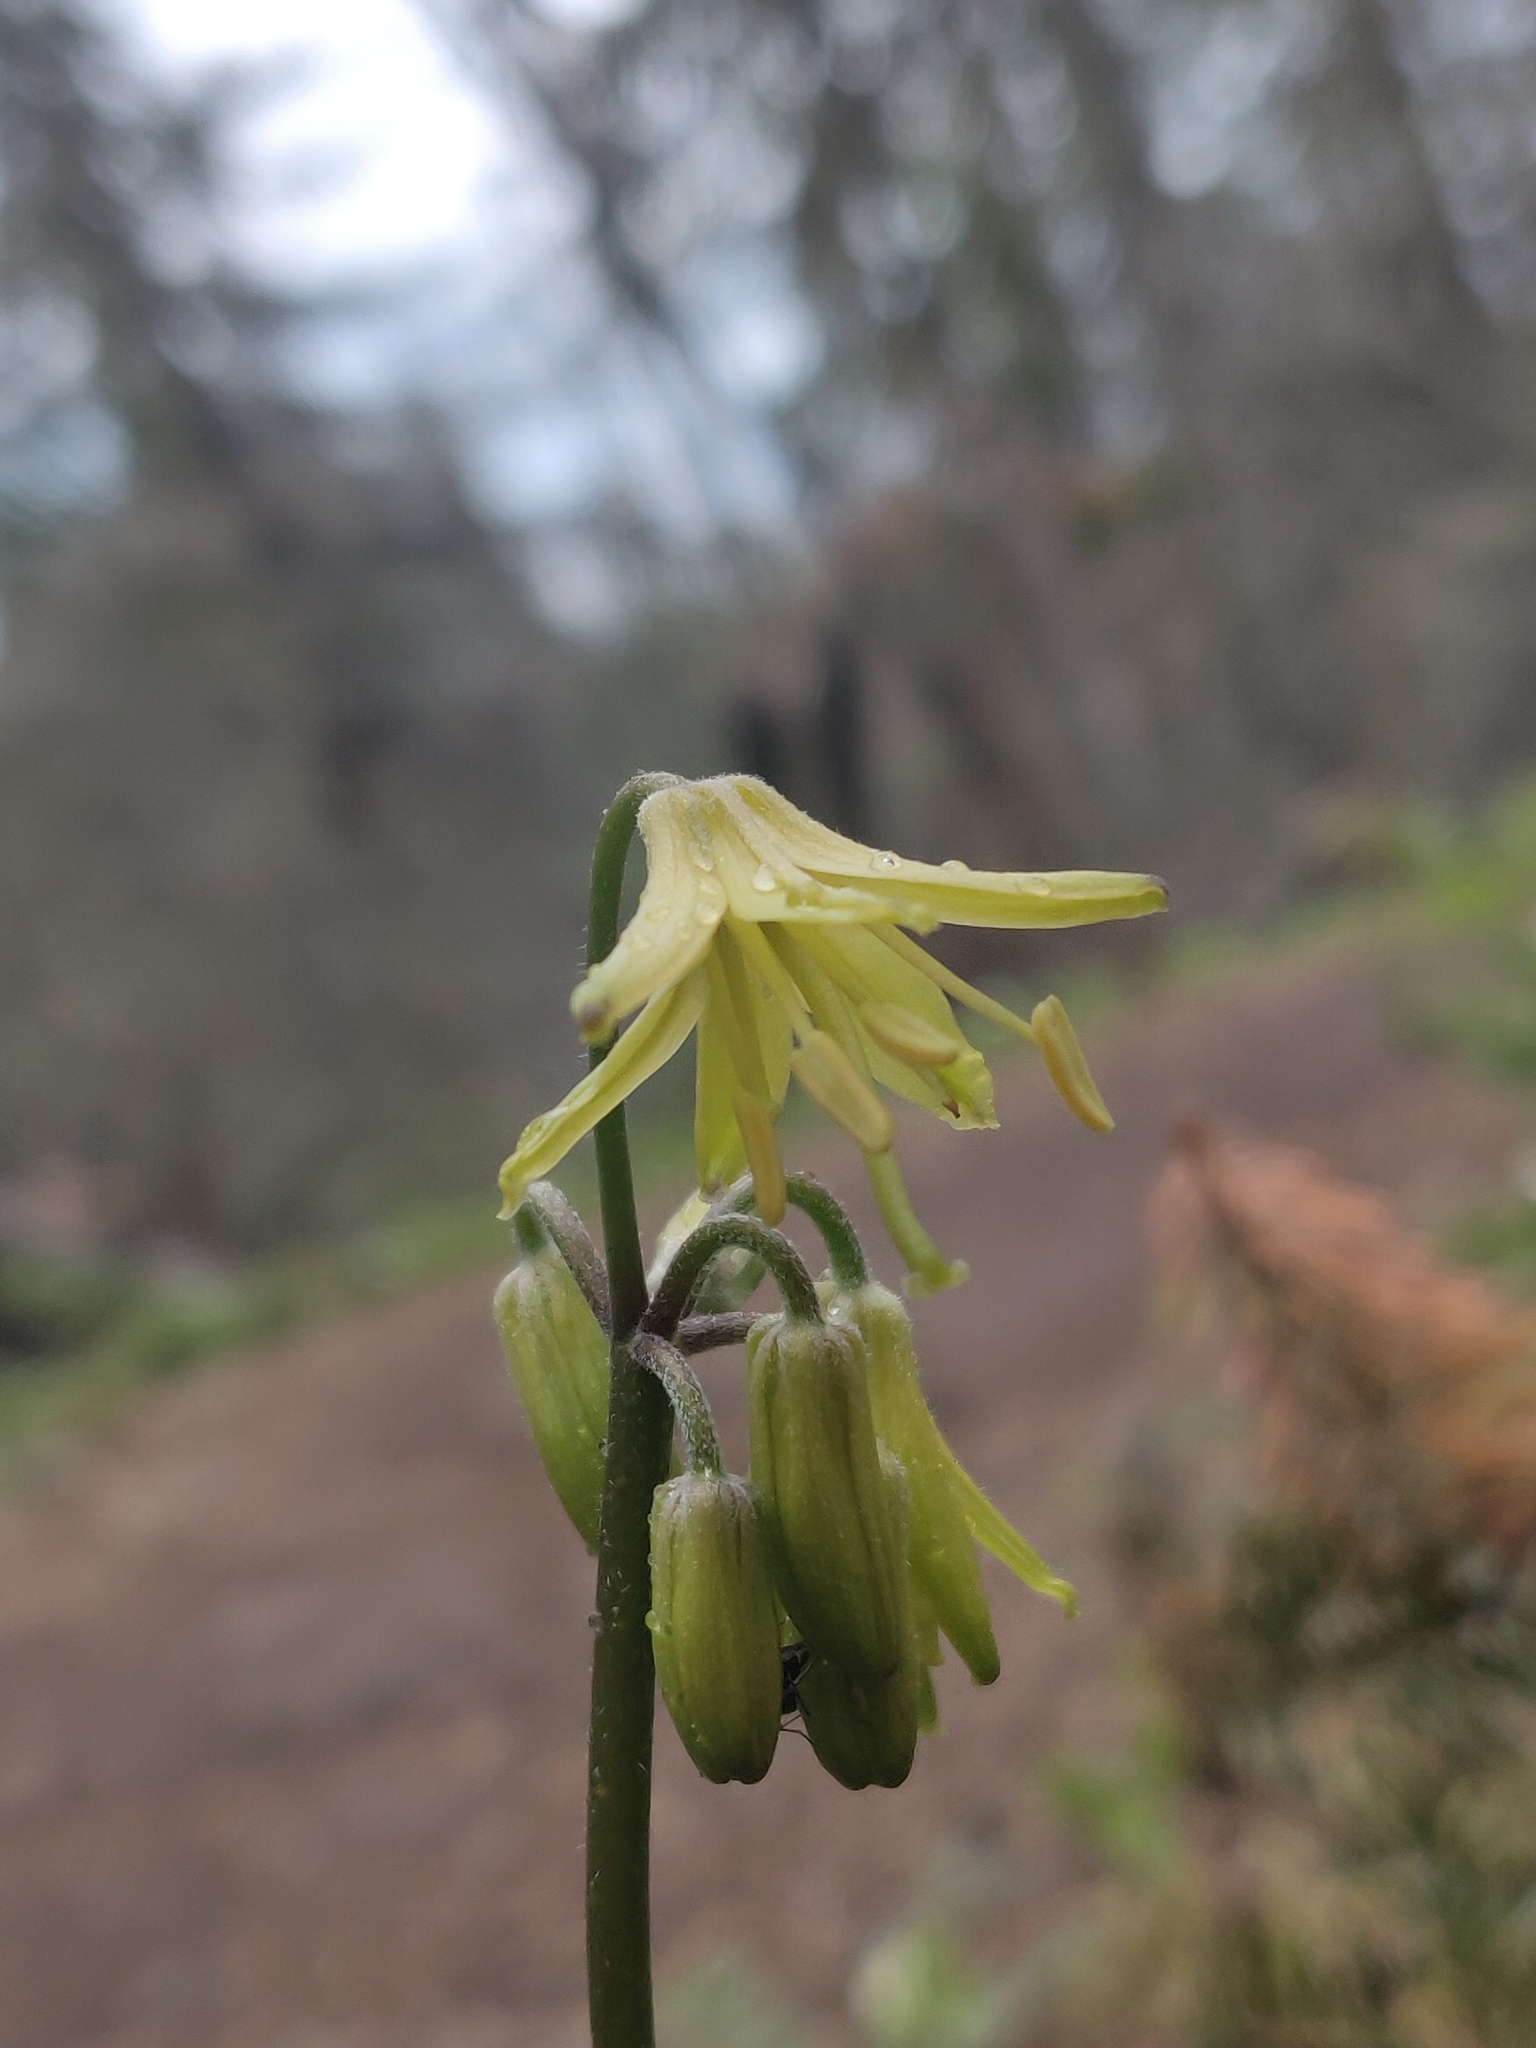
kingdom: Plantae
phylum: Tracheophyta
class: Liliopsida
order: Liliales
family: Liliaceae
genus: Clintonia
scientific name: Clintonia borealis
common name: Yellow clintonia
